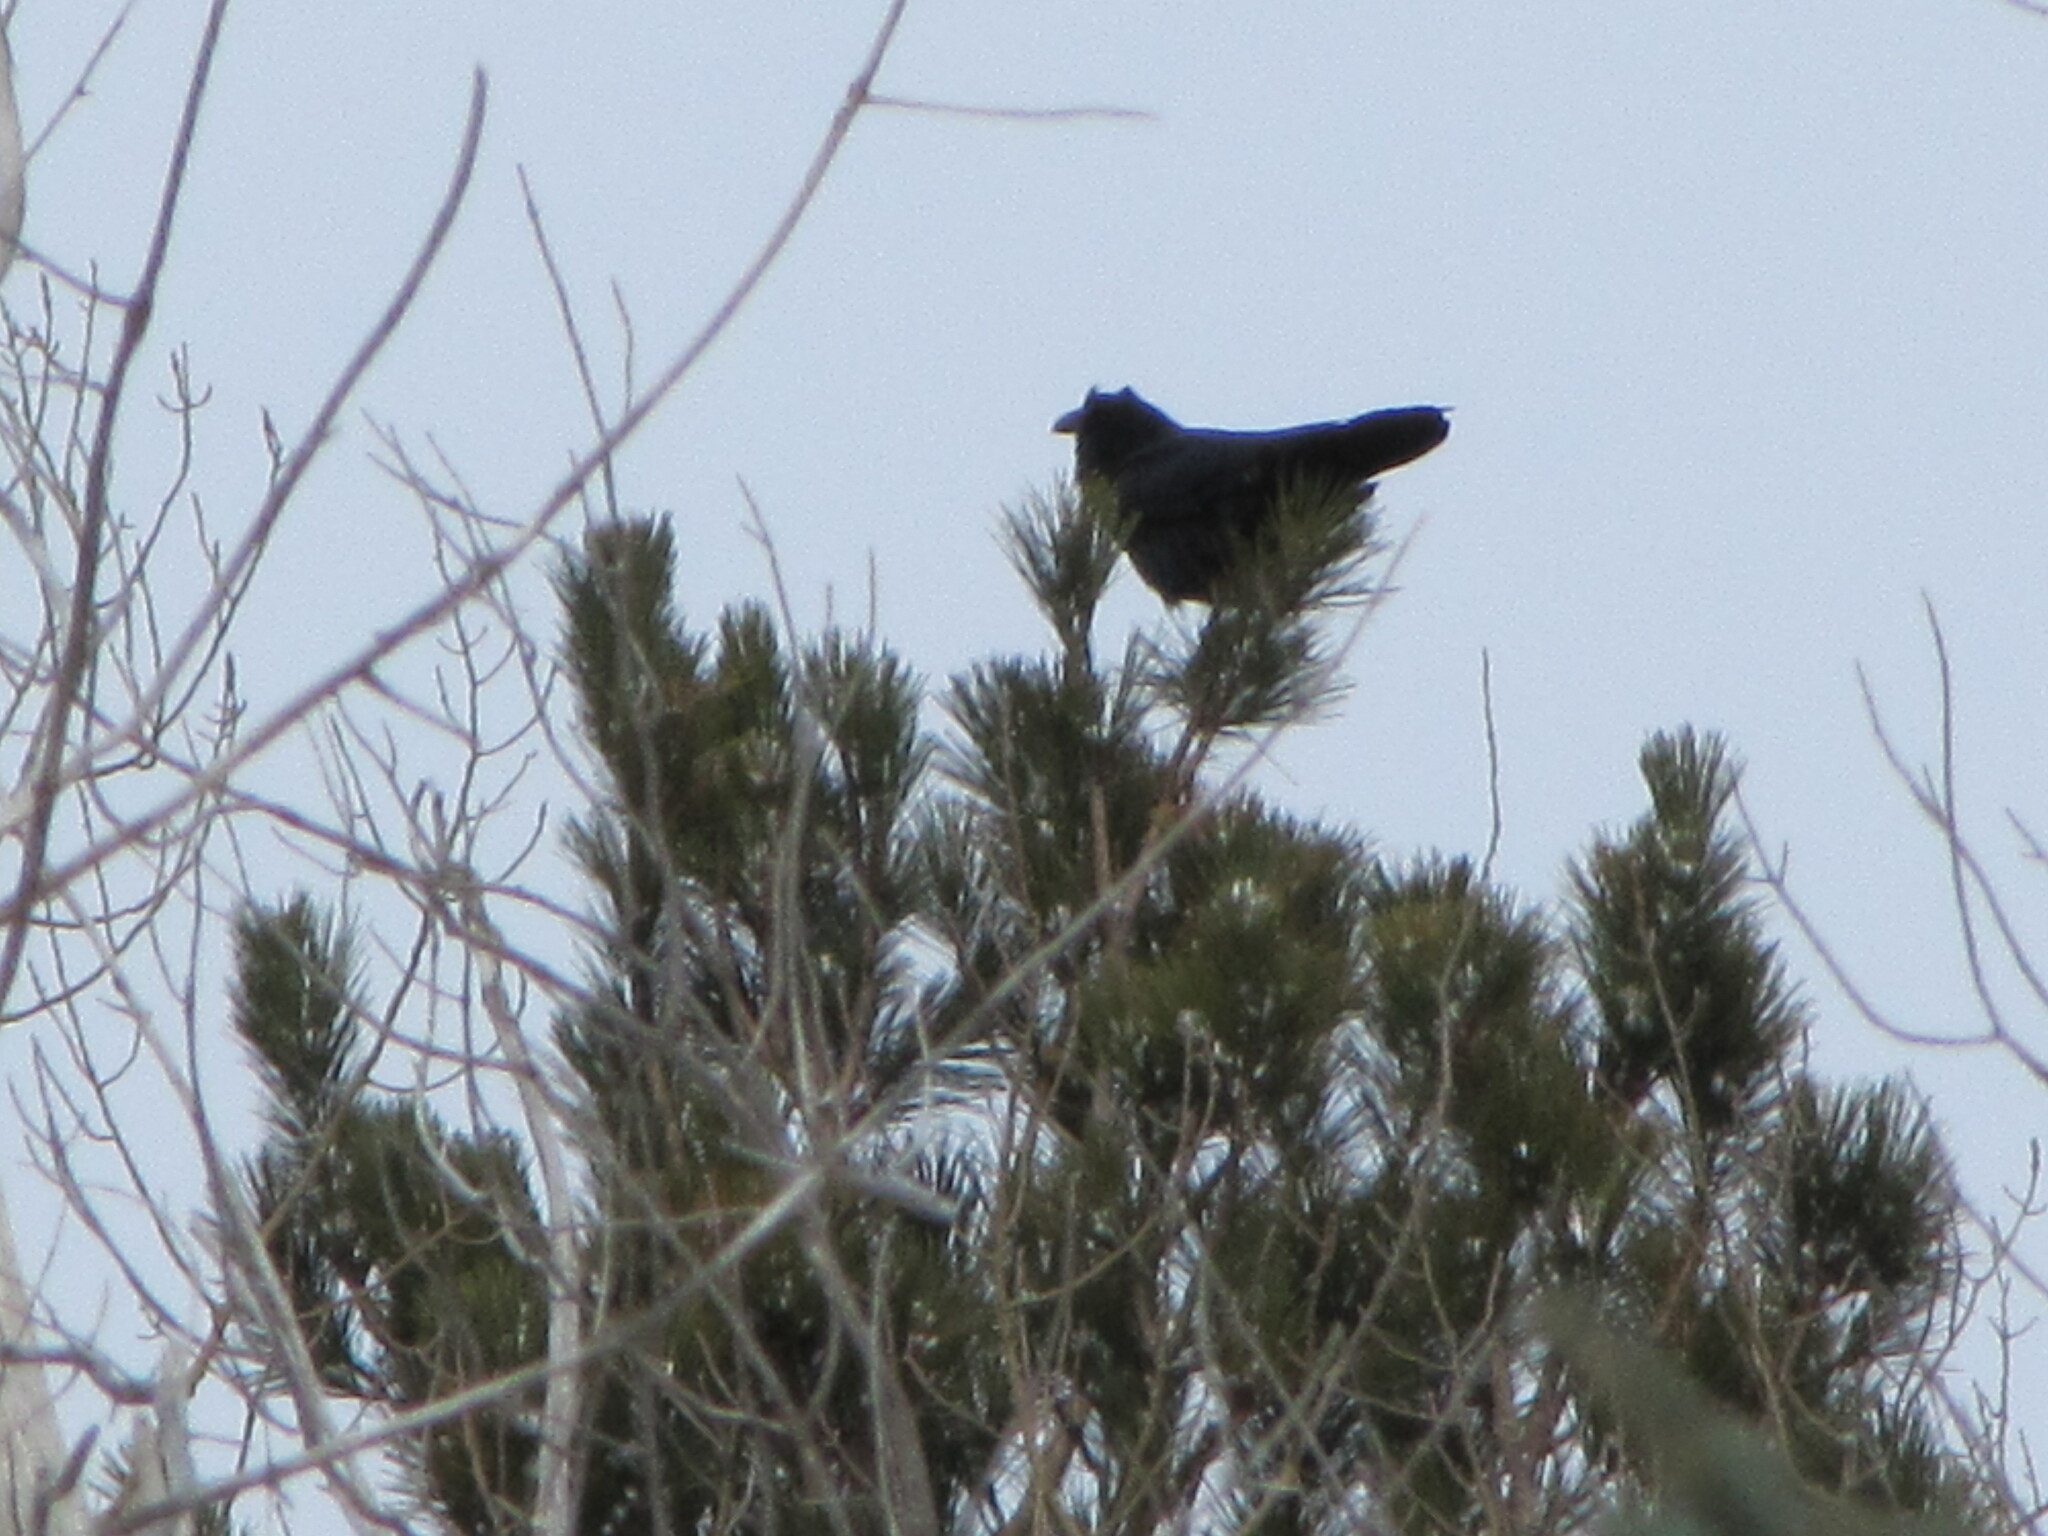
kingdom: Animalia
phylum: Chordata
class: Aves
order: Passeriformes
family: Corvidae
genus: Corvus
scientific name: Corvus corax
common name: Common raven
